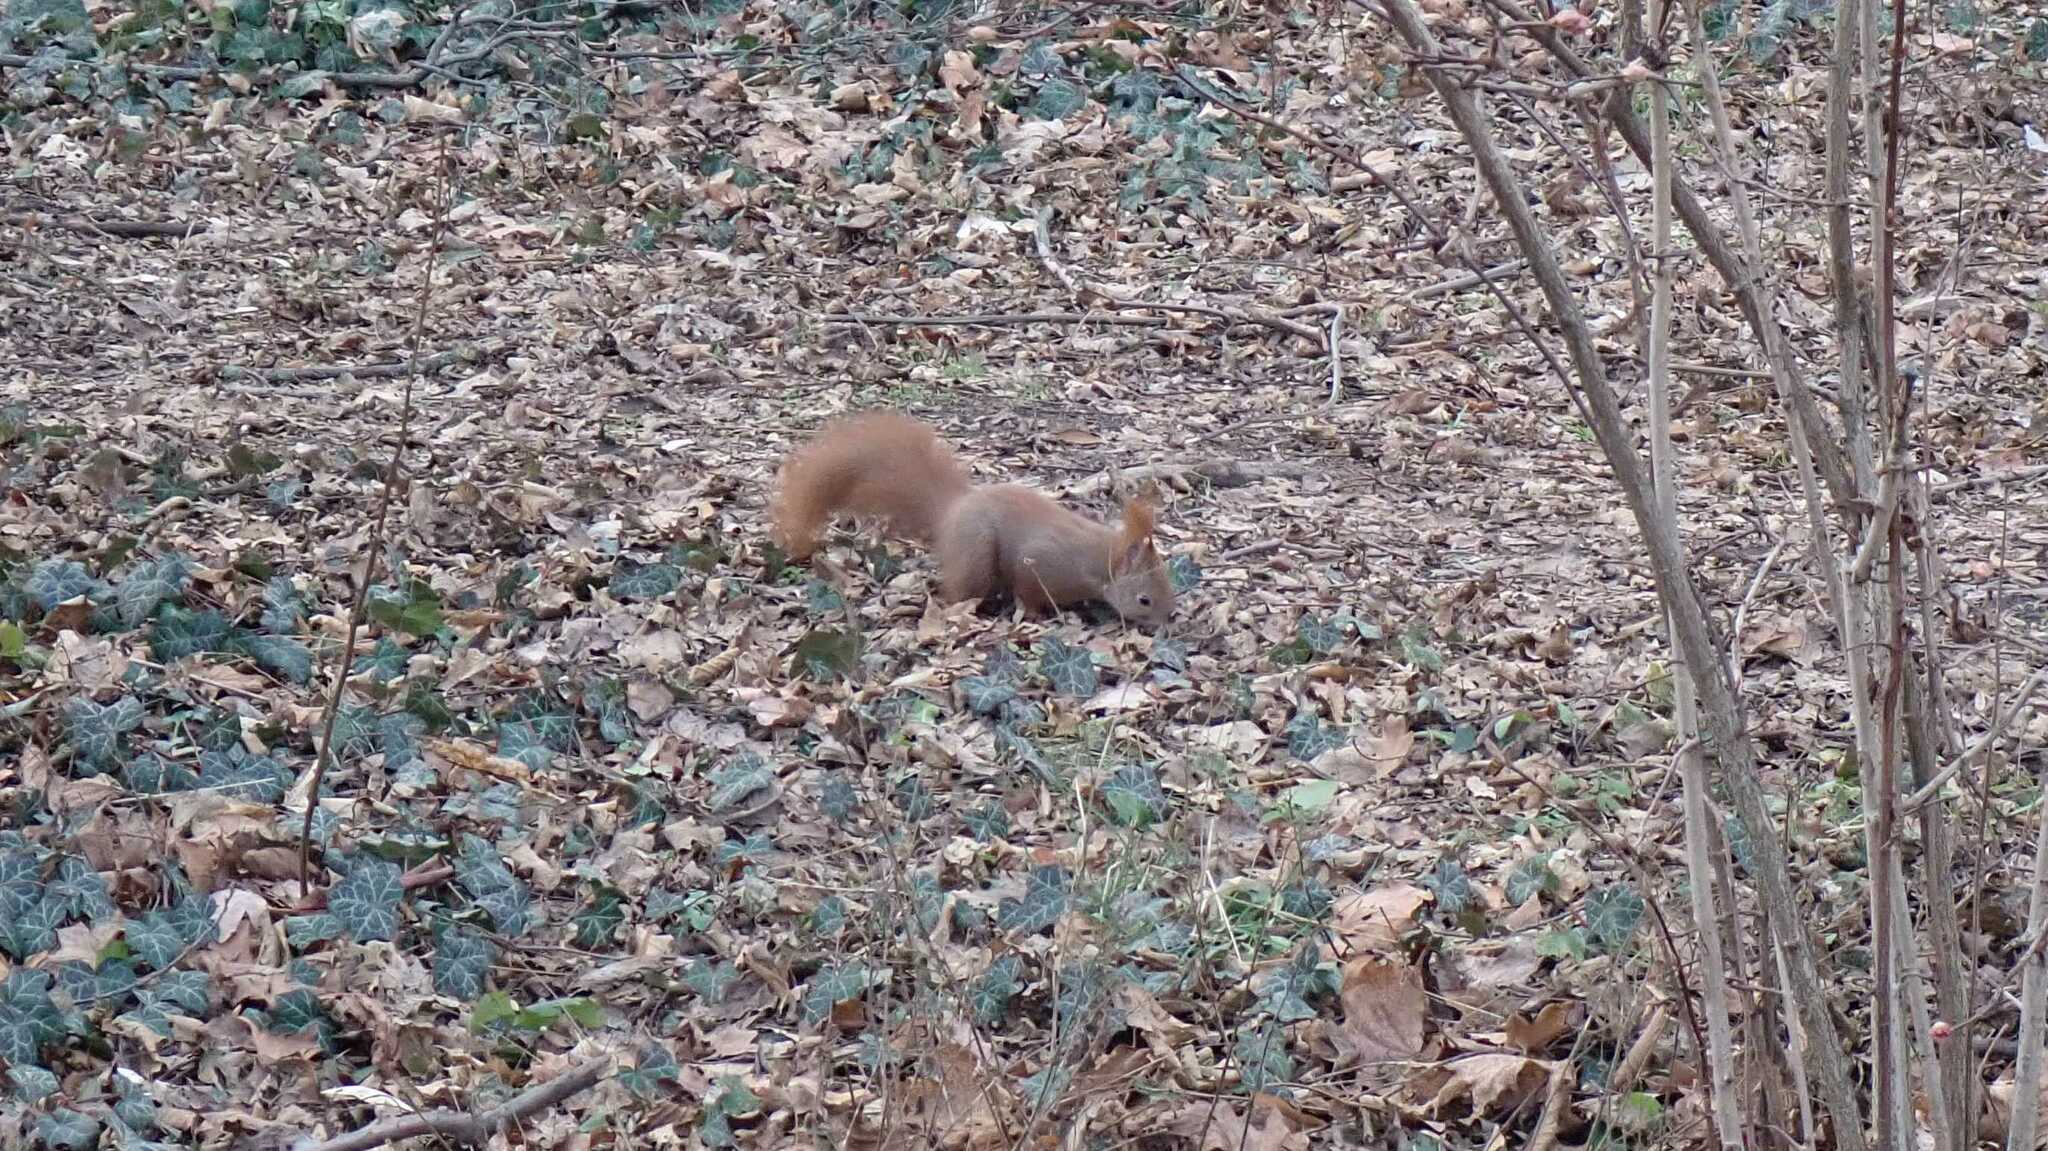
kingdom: Animalia
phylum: Chordata
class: Mammalia
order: Rodentia
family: Sciuridae
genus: Sciurus
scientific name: Sciurus vulgaris
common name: Eurasian red squirrel
